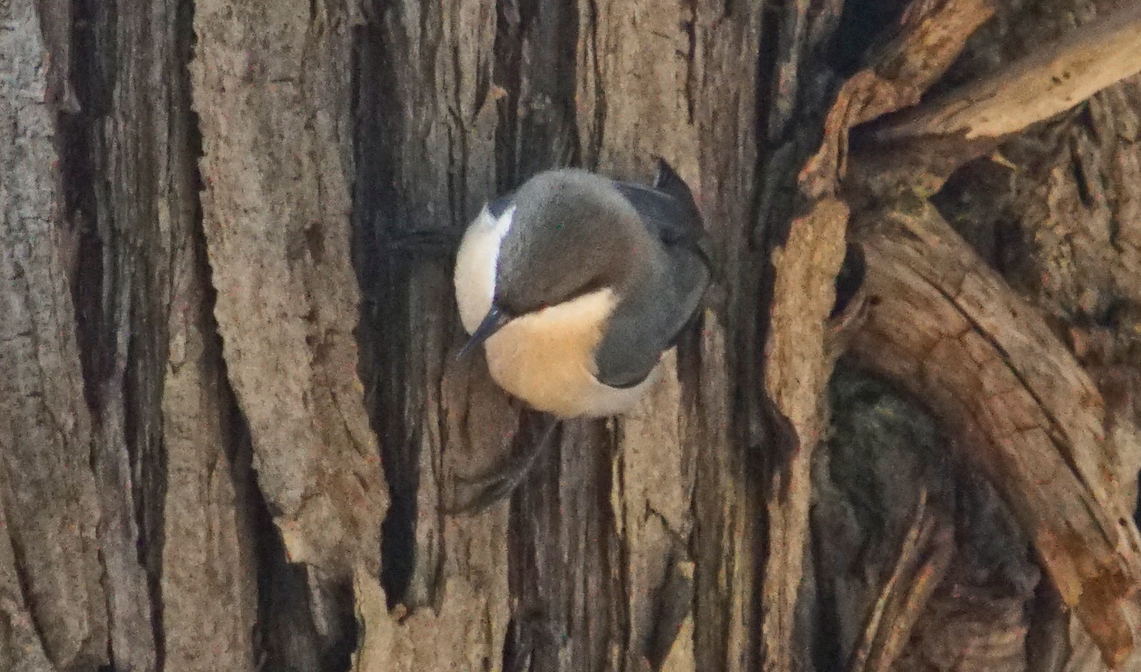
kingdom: Animalia
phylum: Chordata
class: Aves
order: Passeriformes
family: Sittidae
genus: Sitta
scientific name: Sitta pygmaea
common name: Pygmy nuthatch
